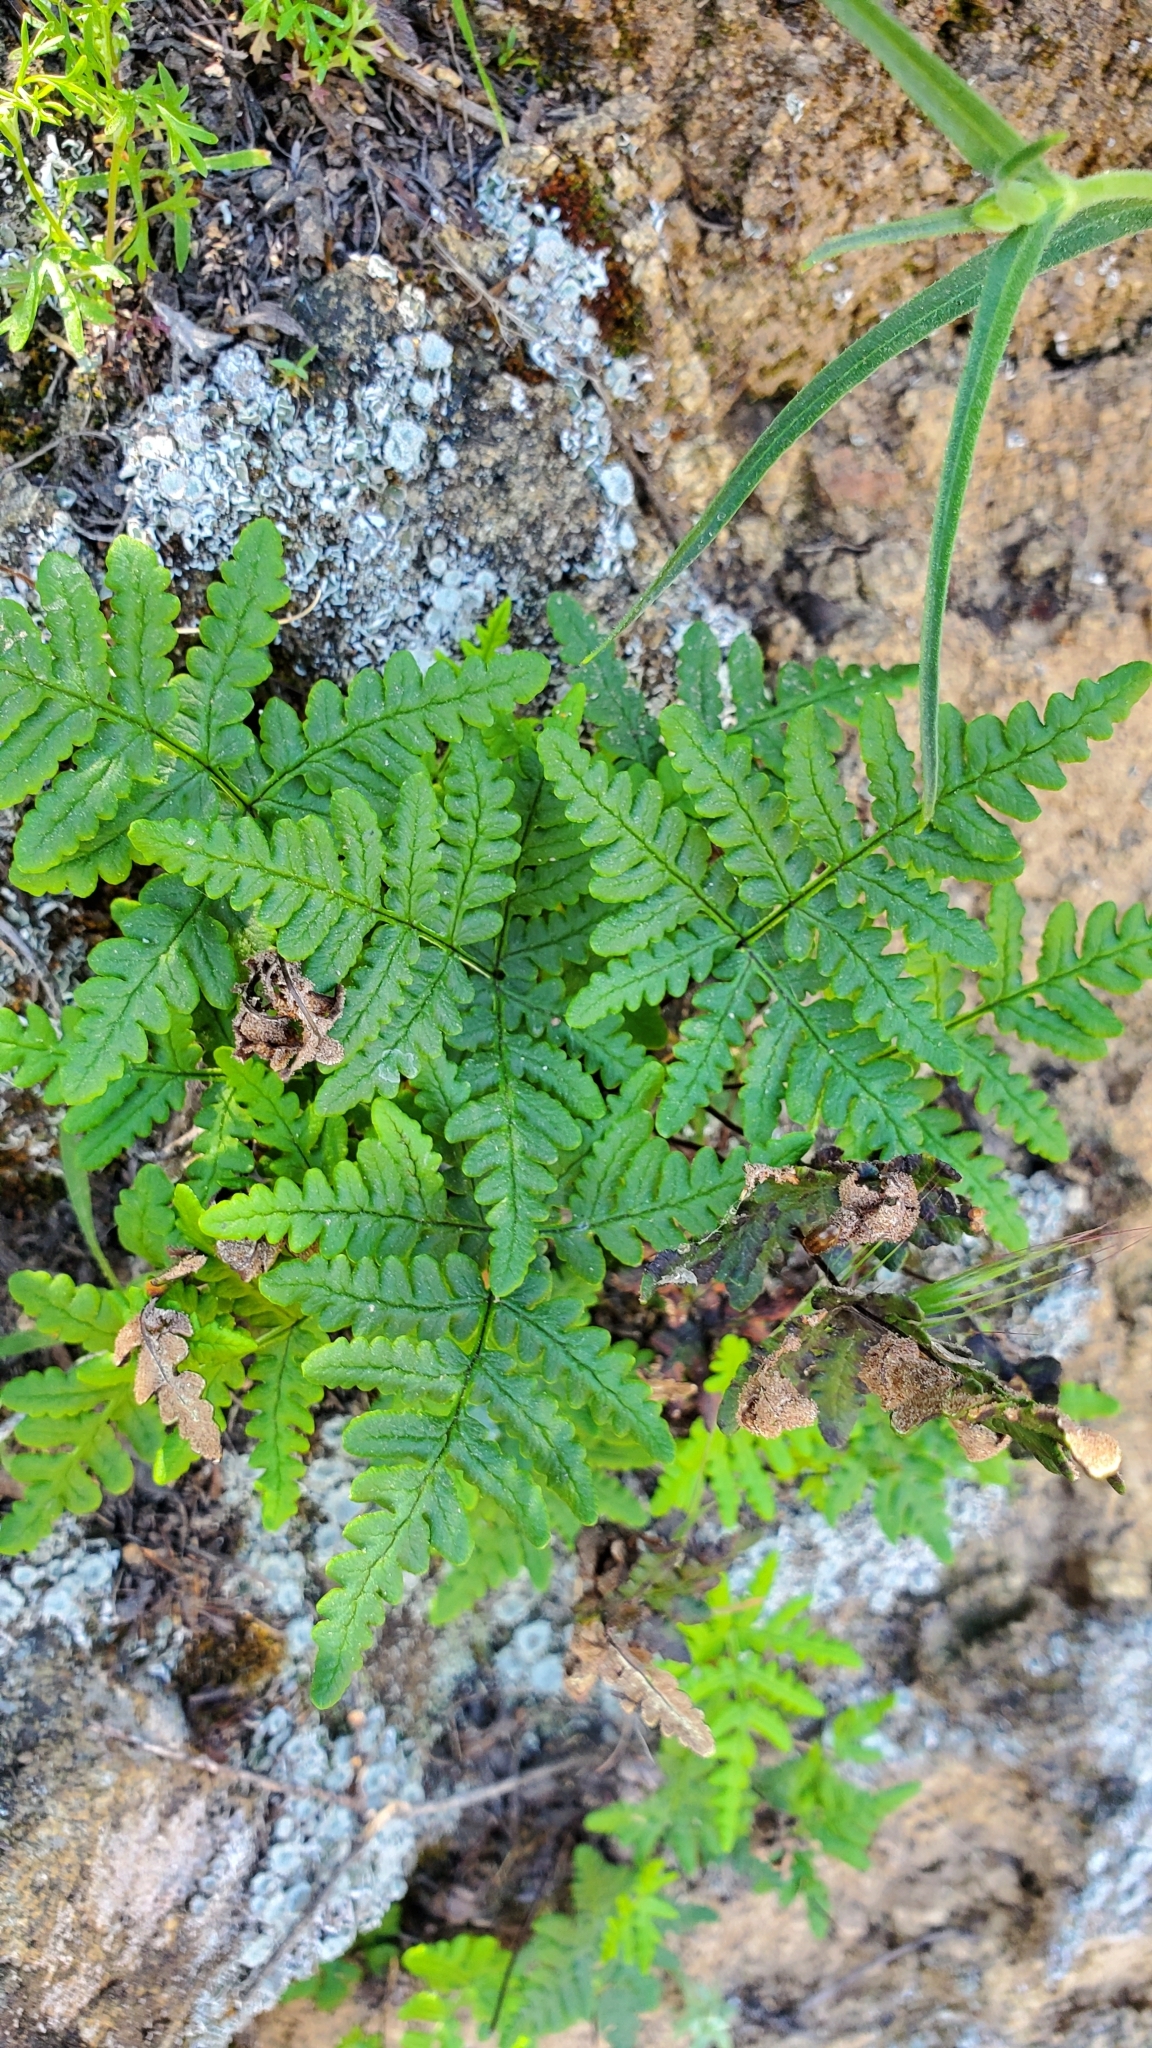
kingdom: Plantae
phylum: Tracheophyta
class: Polypodiopsida
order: Polypodiales
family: Pteridaceae
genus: Pentagramma
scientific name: Pentagramma triangularis
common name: Gold fern
